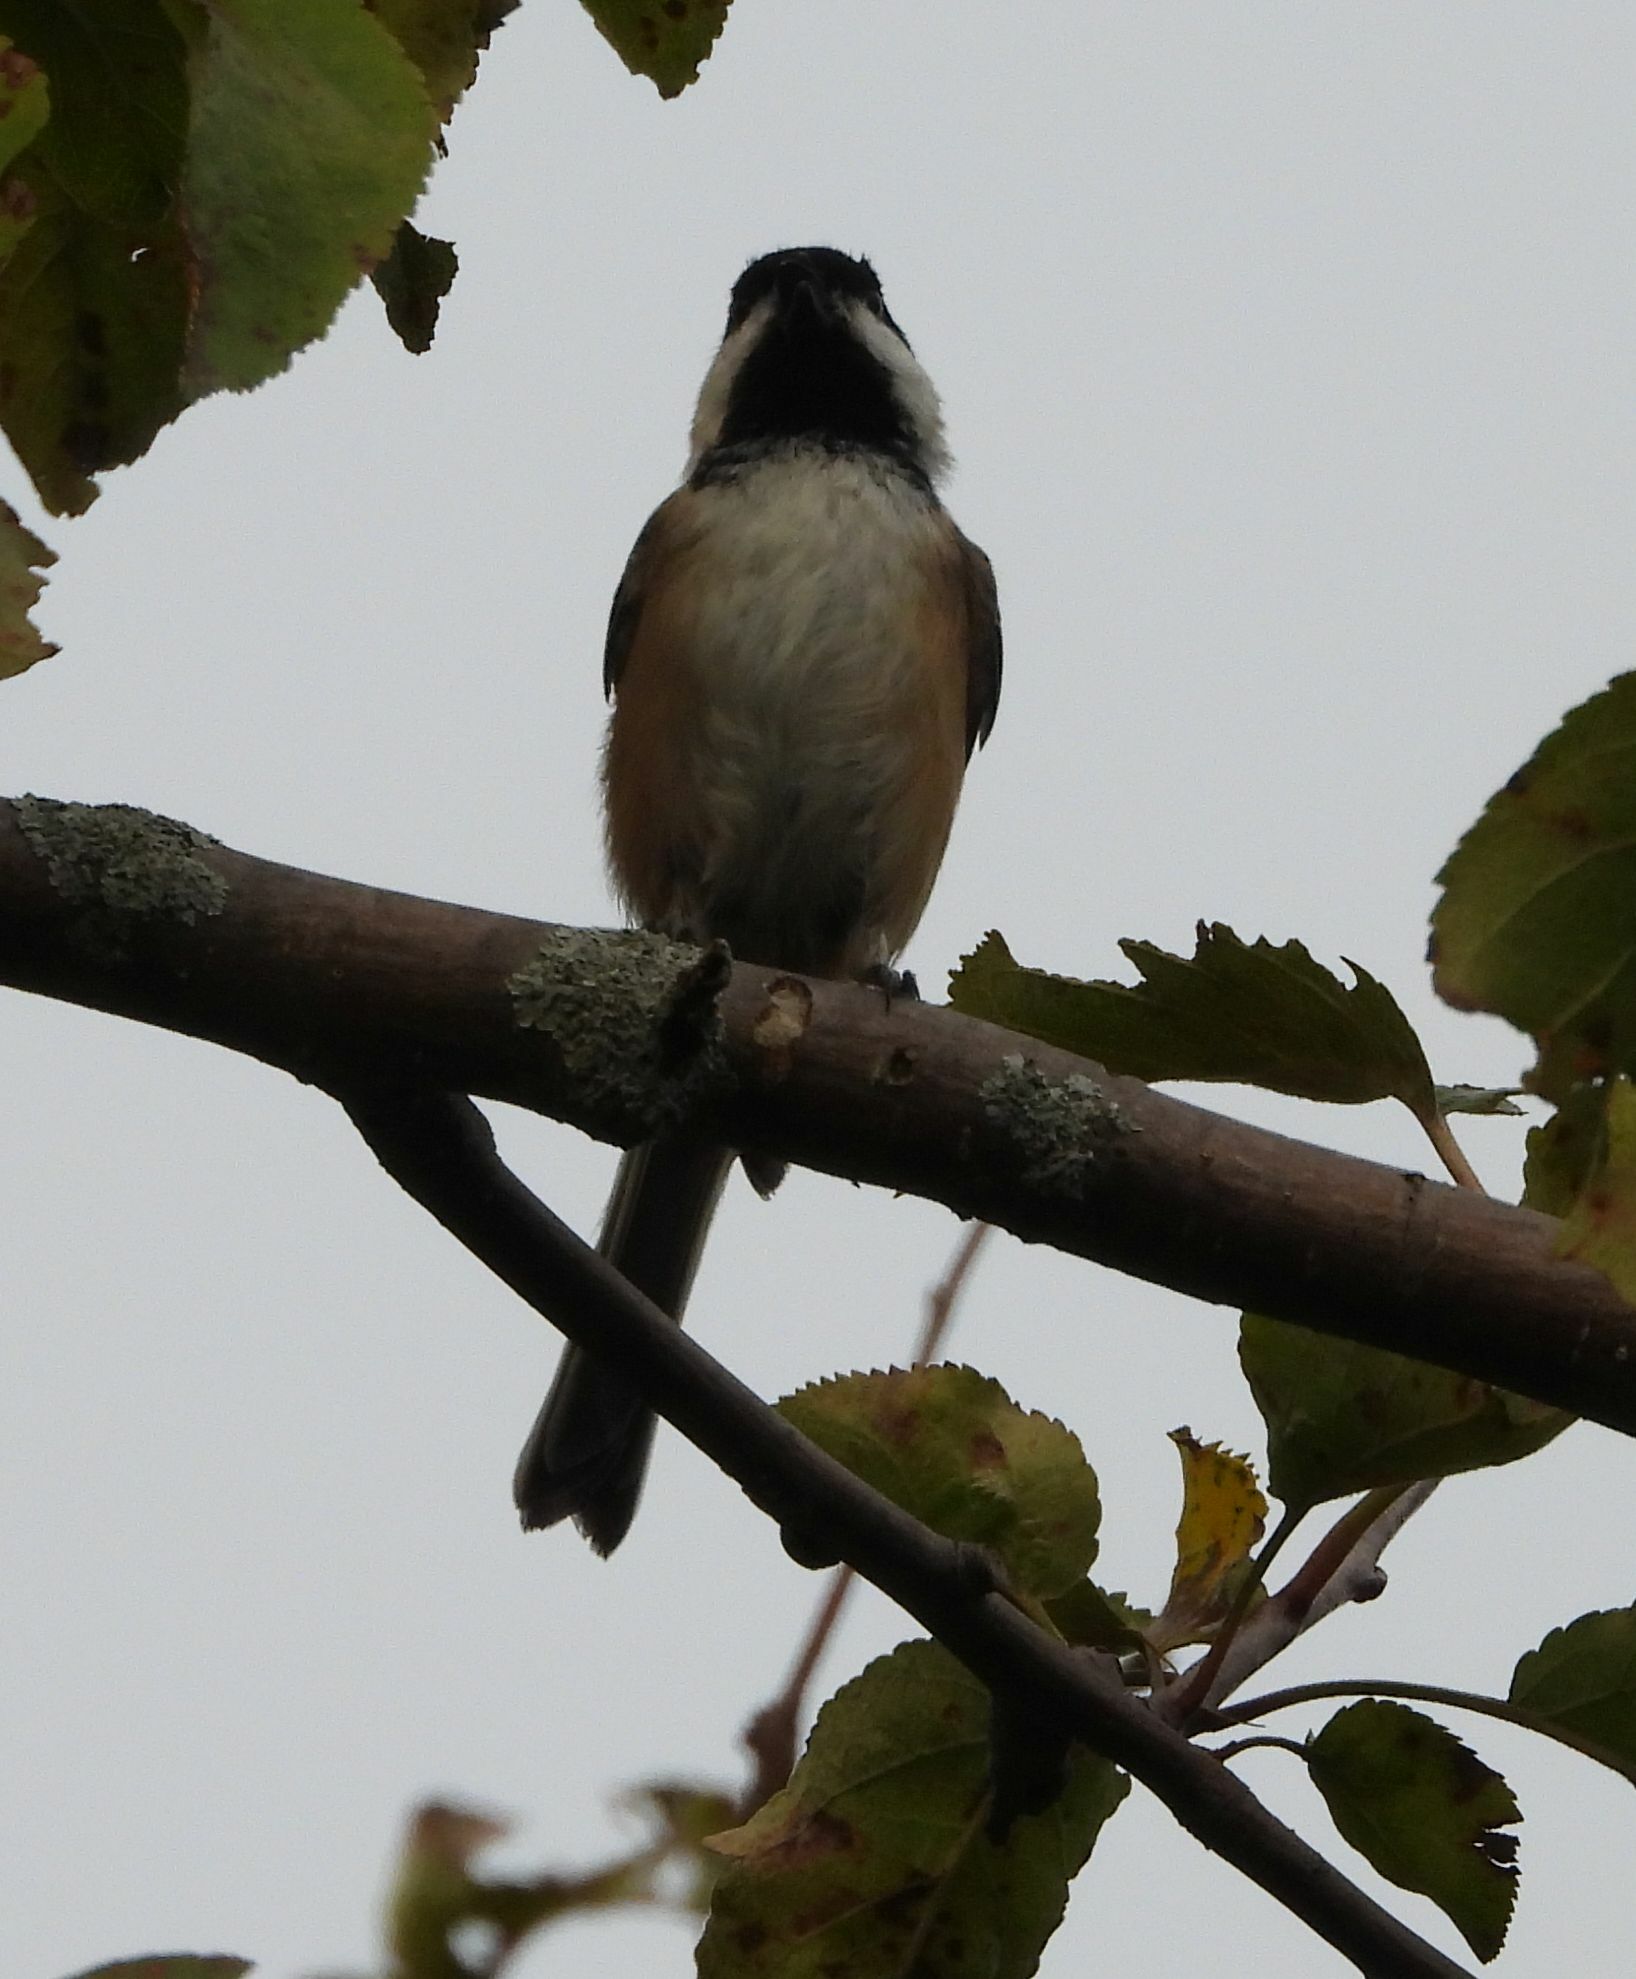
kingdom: Animalia
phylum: Chordata
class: Aves
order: Passeriformes
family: Paridae
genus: Poecile
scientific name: Poecile atricapillus
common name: Black-capped chickadee
